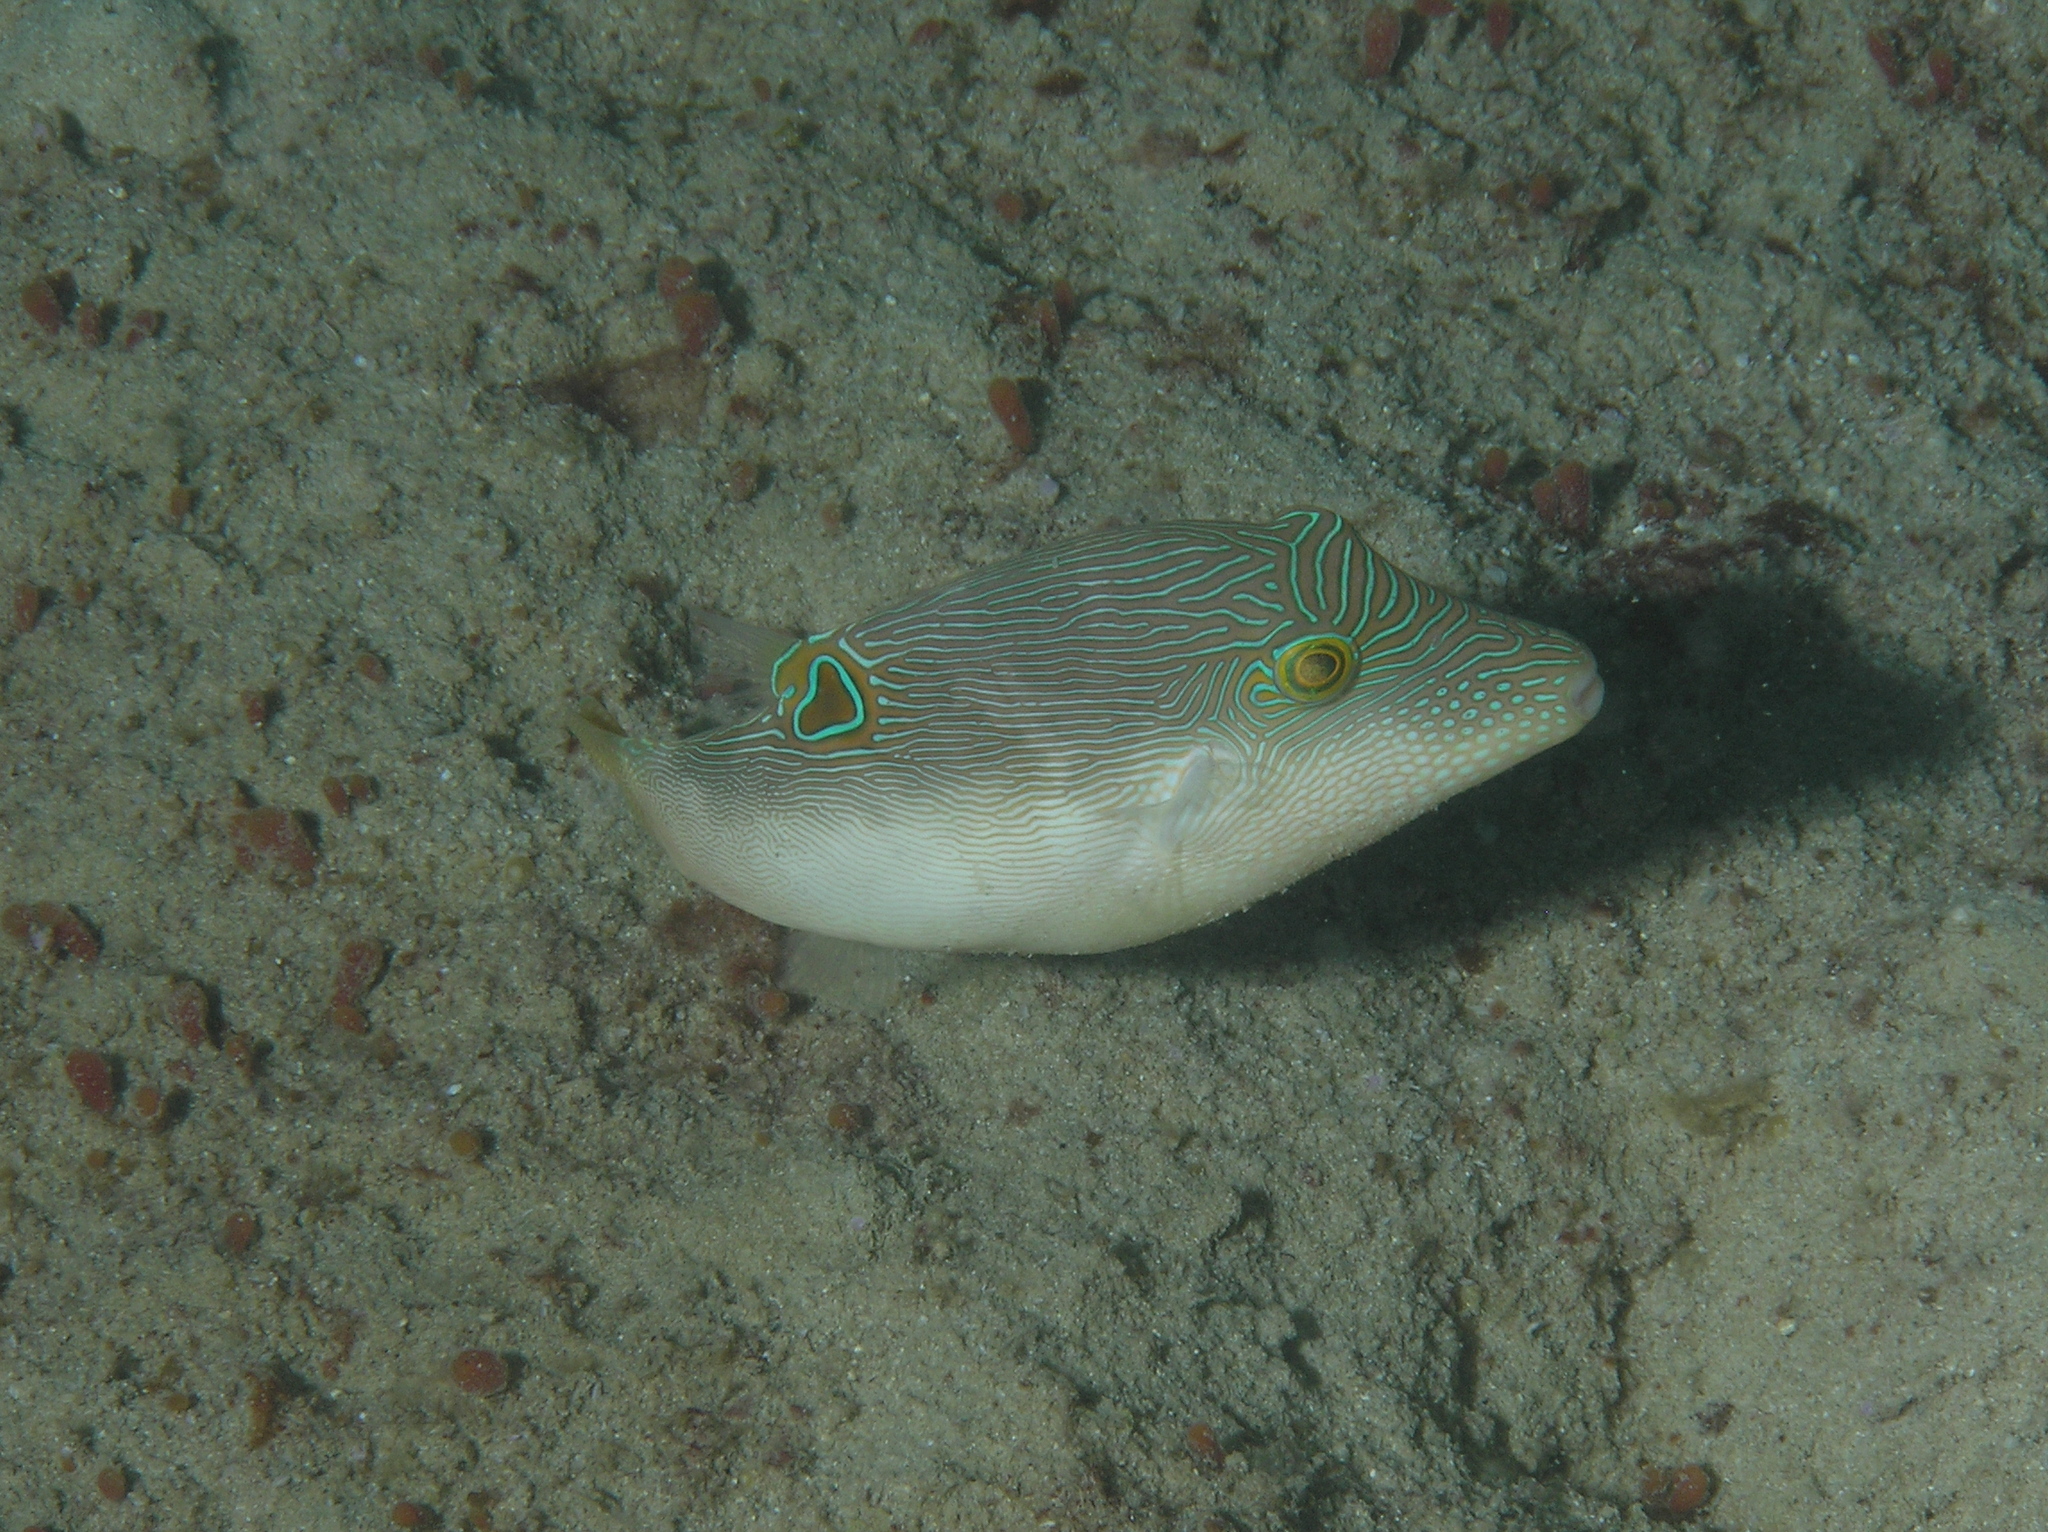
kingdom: Animalia
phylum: Chordata
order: Tetraodontiformes
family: Tetraodontidae
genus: Canthigaster
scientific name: Canthigaster compressa
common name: Compressed toby
